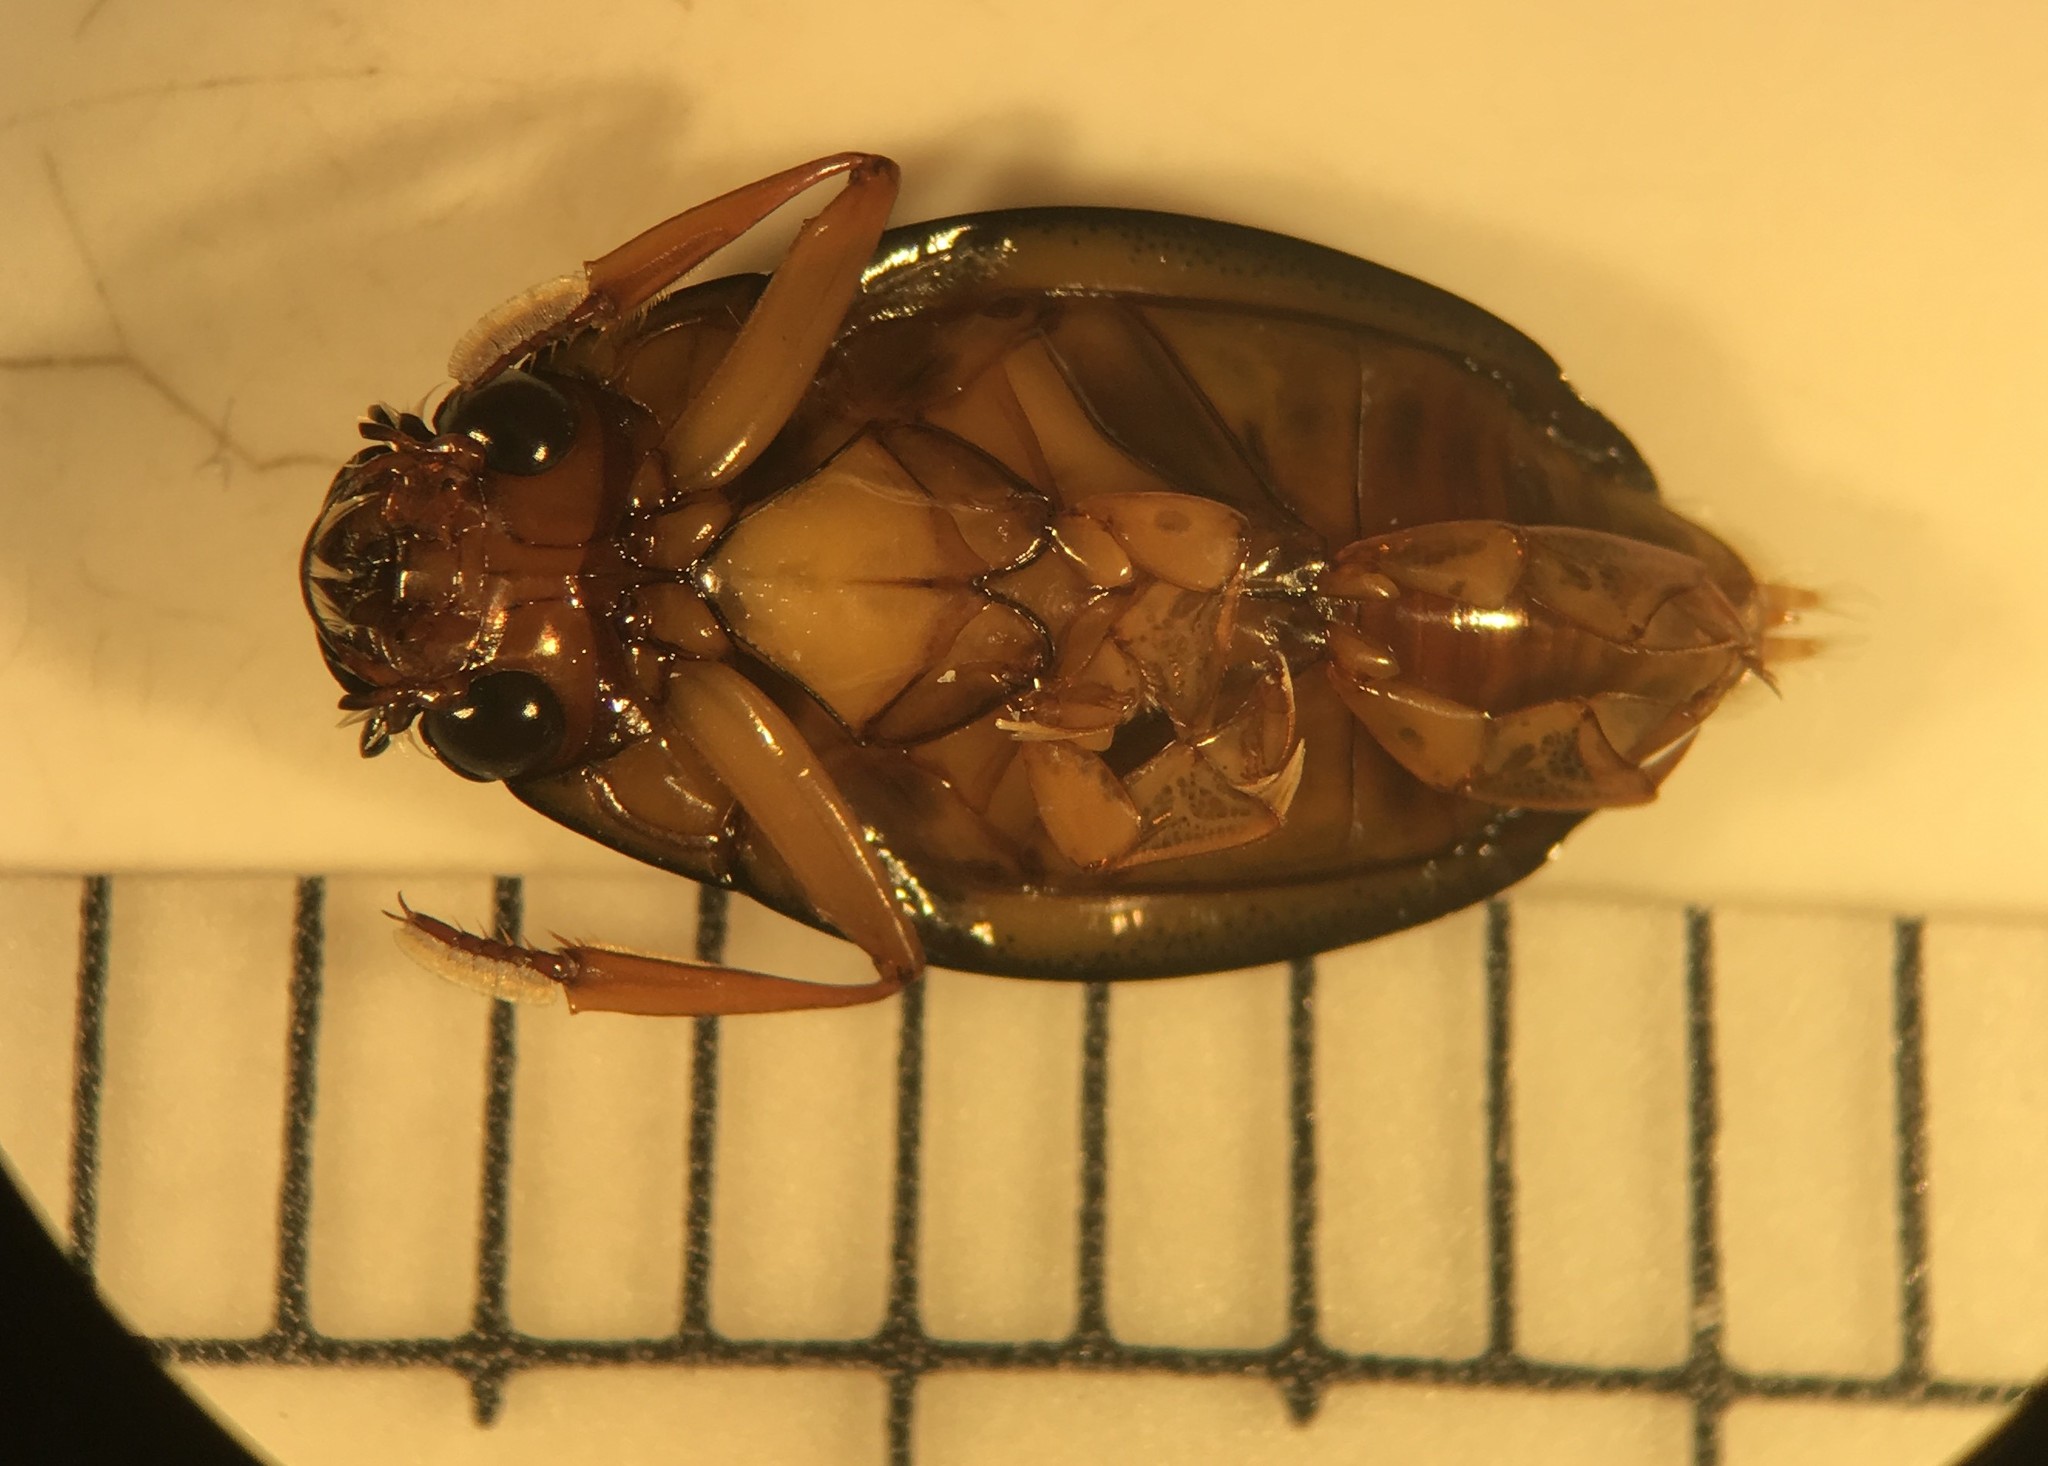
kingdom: Animalia
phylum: Arthropoda
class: Insecta
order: Coleoptera
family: Gyrinidae
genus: Dineutus
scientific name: Dineutus discolor
